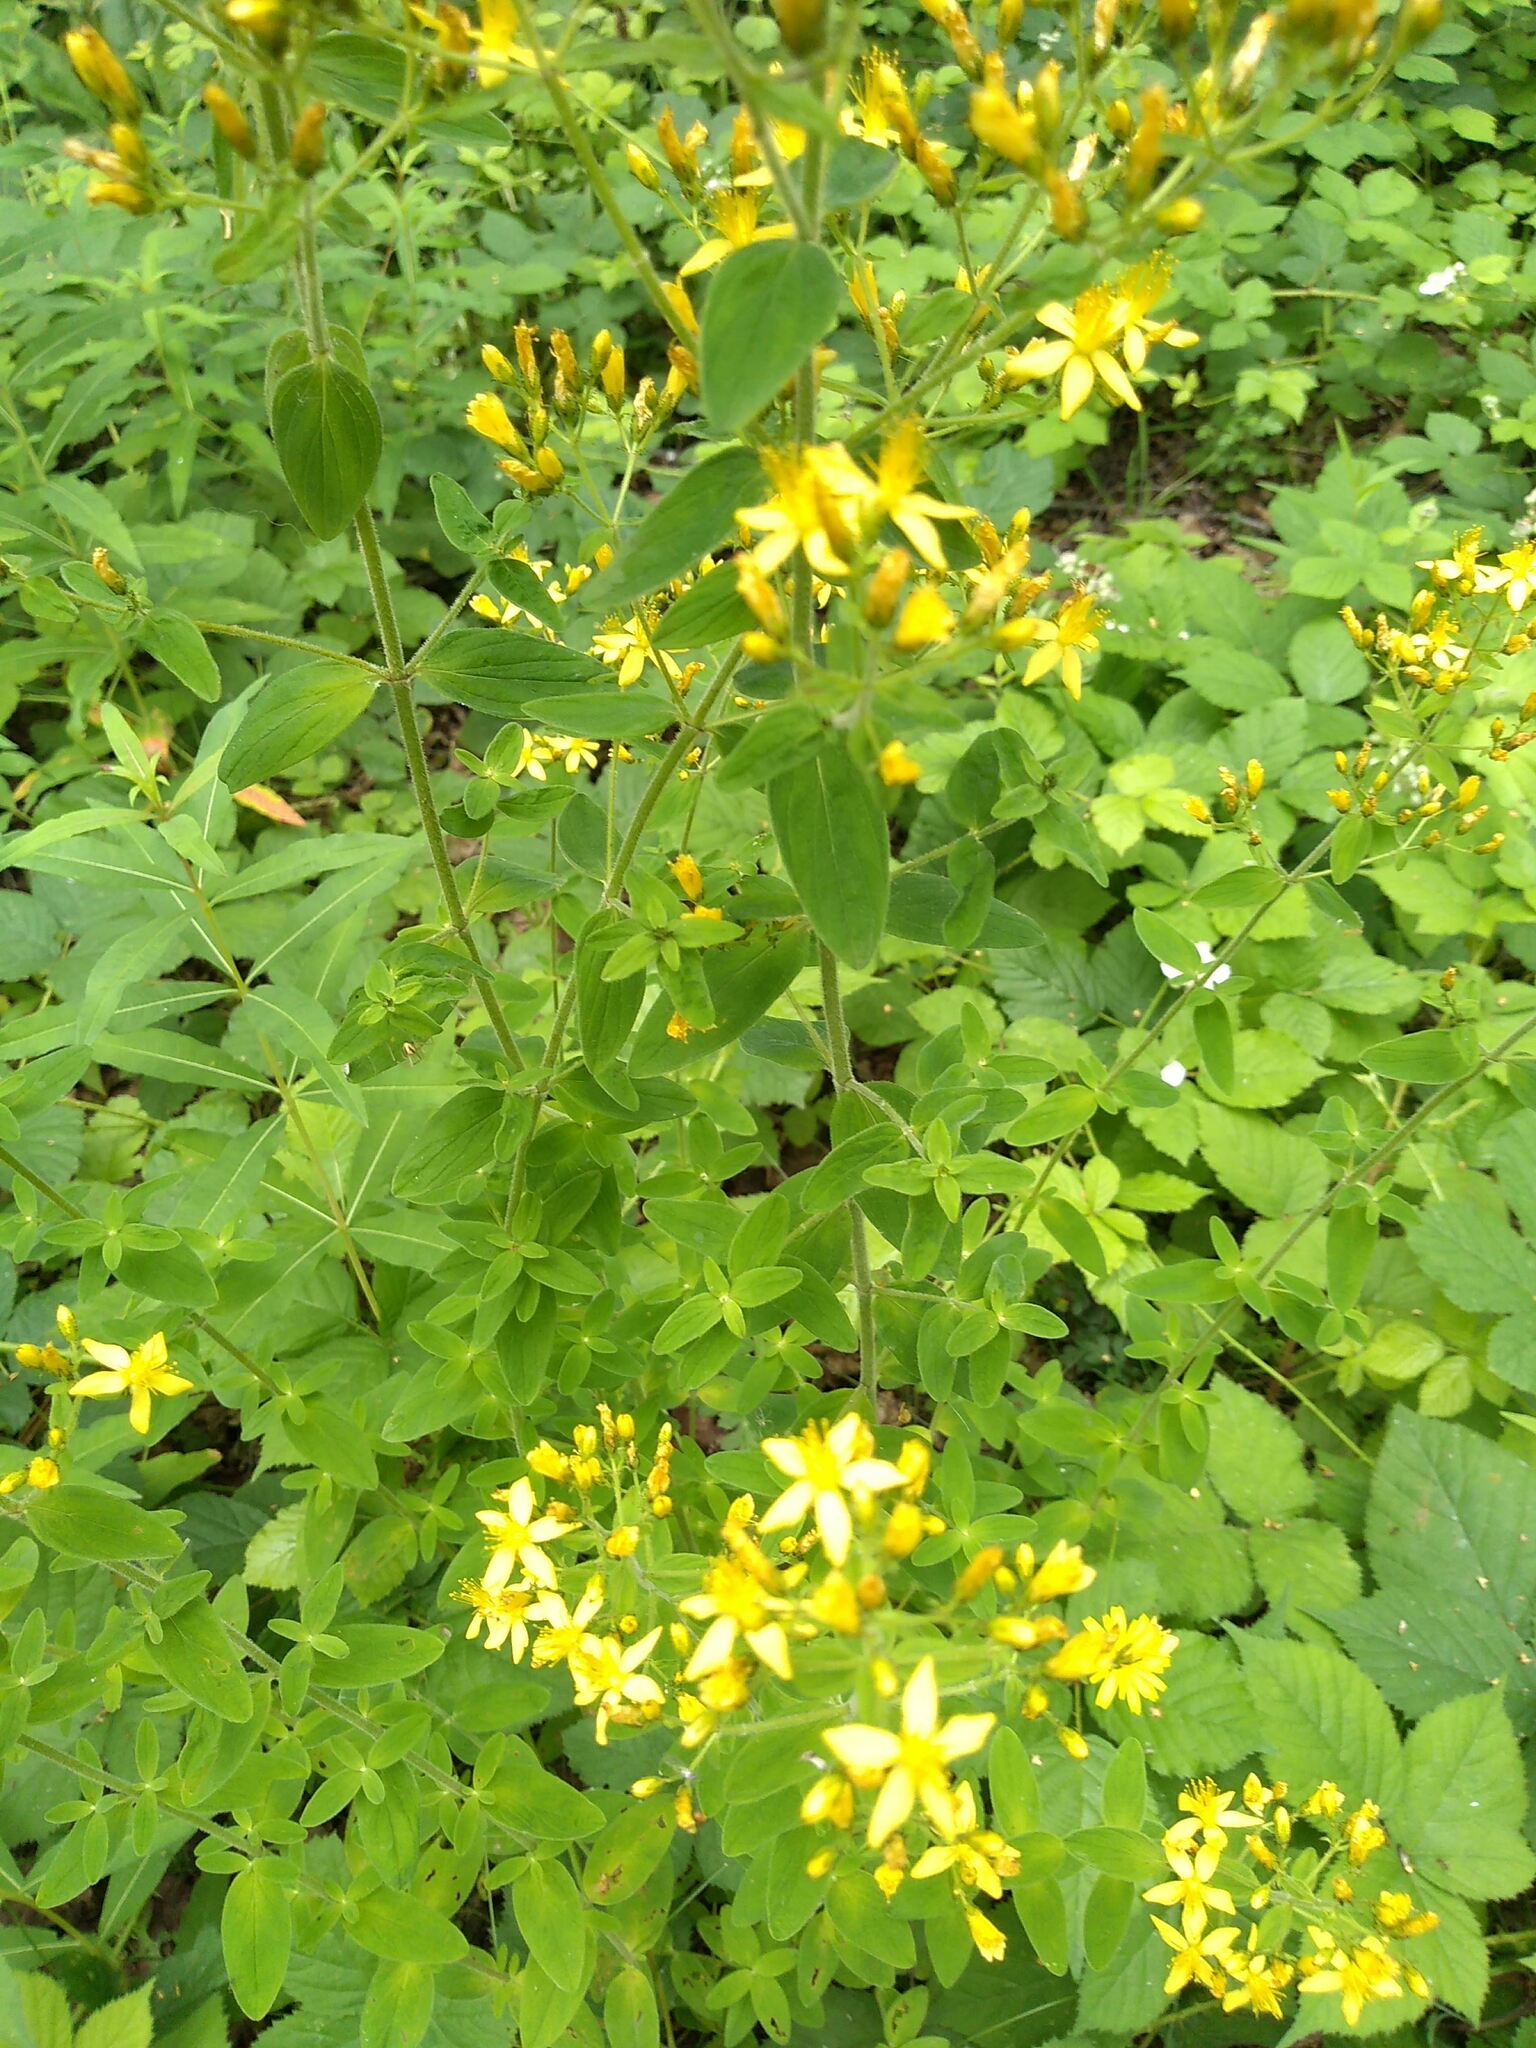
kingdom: Plantae
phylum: Tracheophyta
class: Magnoliopsida
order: Malpighiales
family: Hypericaceae
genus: Hypericum
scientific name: Hypericum hirsutum
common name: Hairy st. john's-wort
